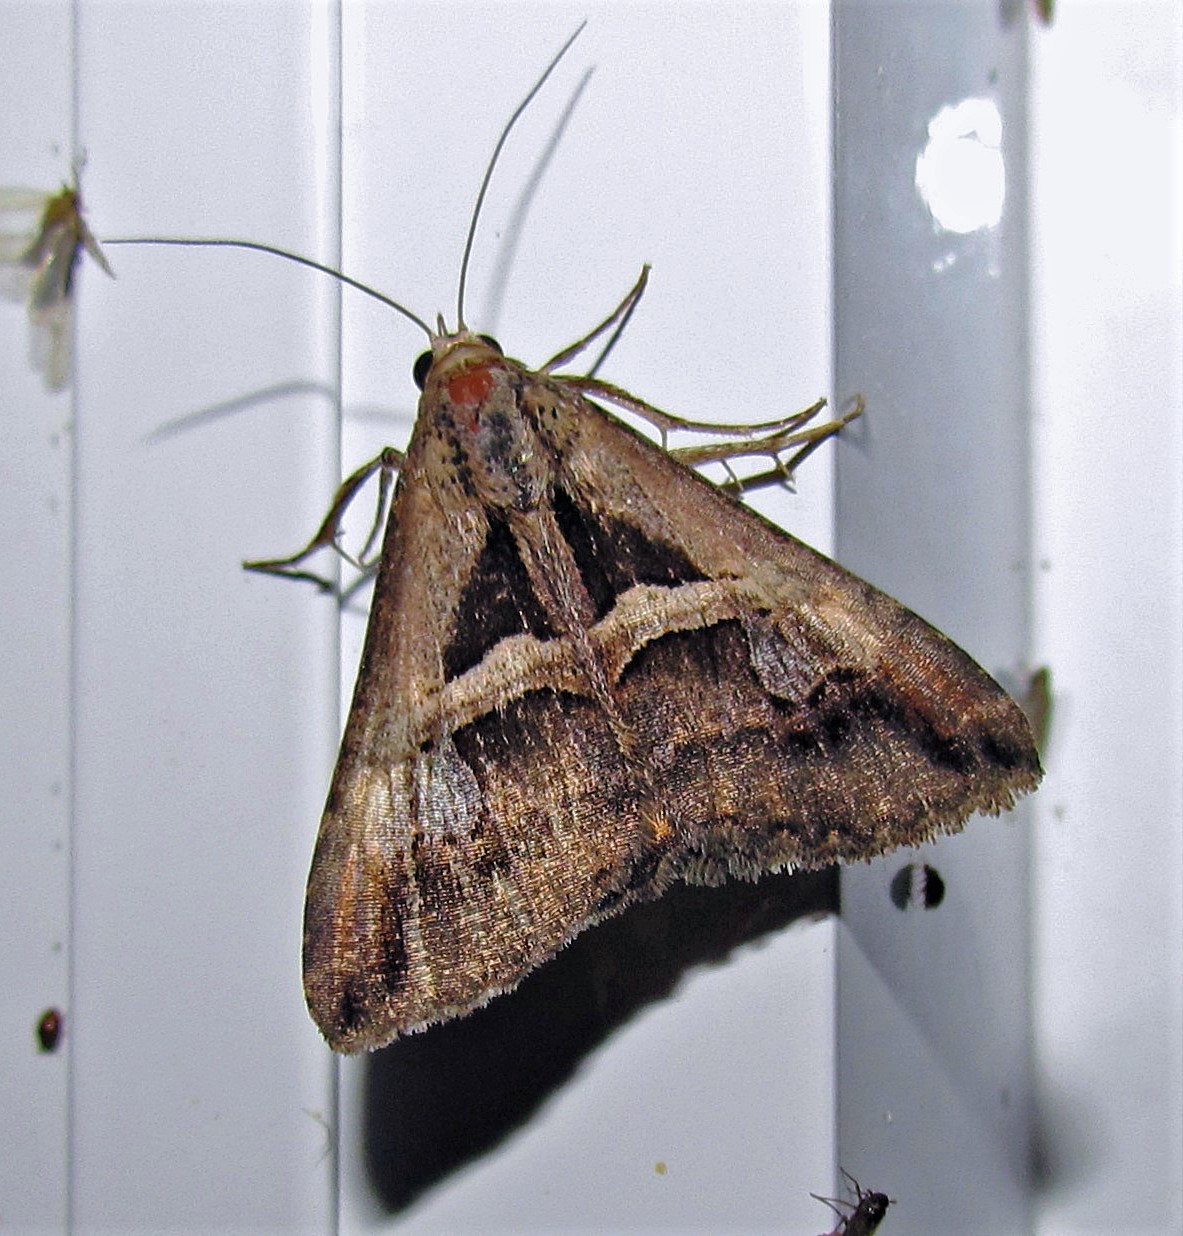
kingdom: Animalia
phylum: Arthropoda
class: Insecta
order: Lepidoptera
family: Erebidae
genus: Melipotis
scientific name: Melipotis cellaris
